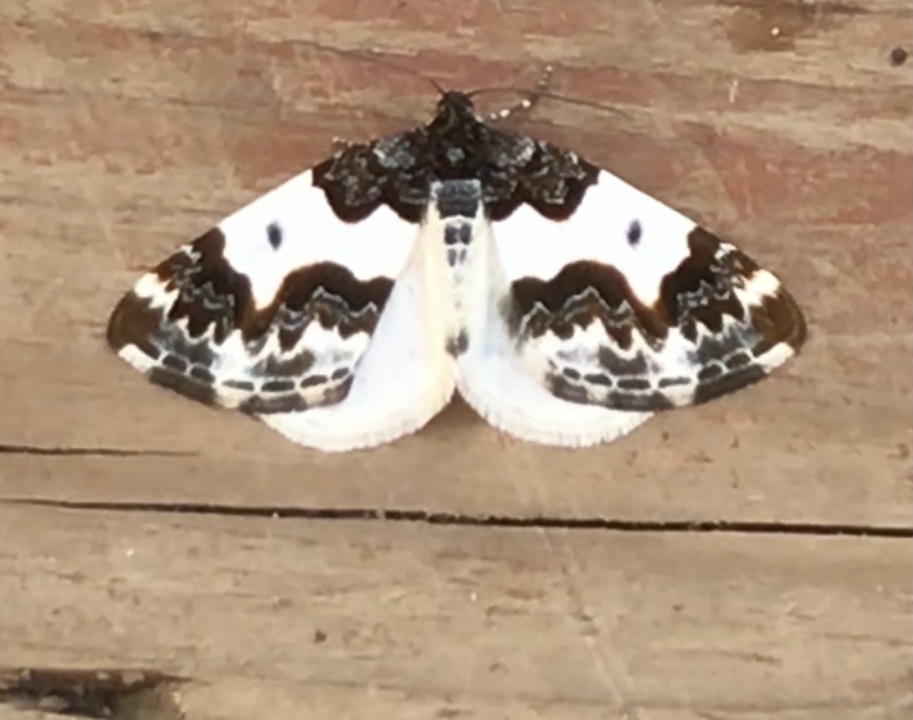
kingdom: Animalia
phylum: Arthropoda
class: Insecta
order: Lepidoptera
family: Geometridae
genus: Mesoleuca
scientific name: Mesoleuca gratulata
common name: Half-white carpet moth
